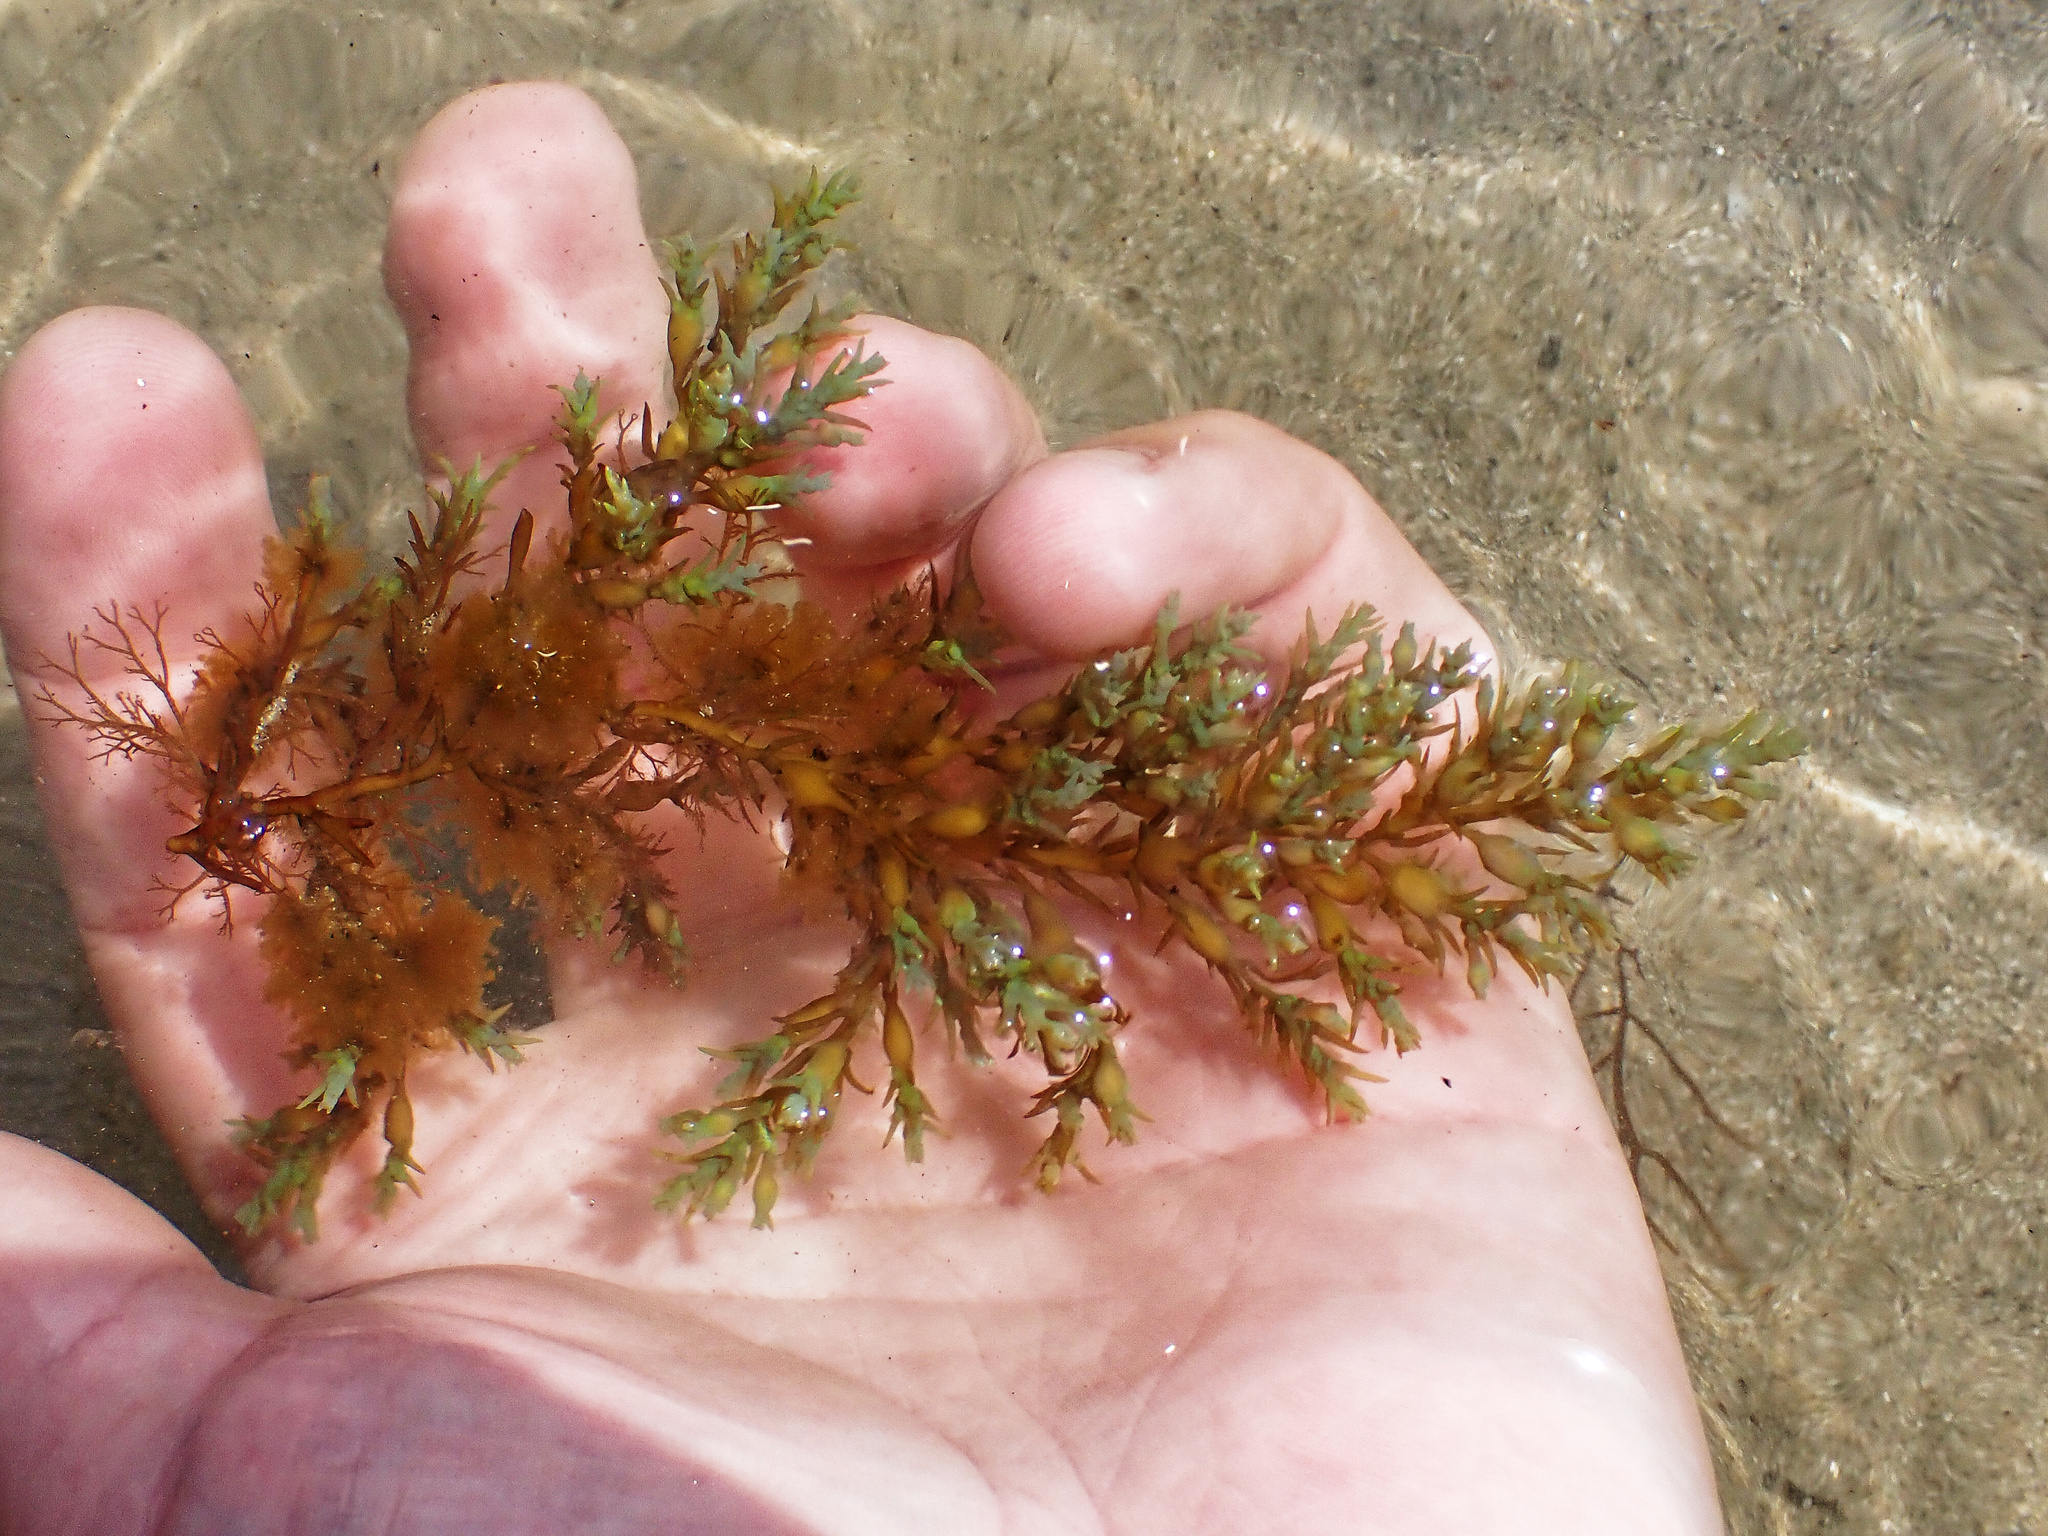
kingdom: Chromista
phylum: Ochrophyta
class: Phaeophyceae
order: Fucales
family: Sargassaceae
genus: Cystoseira
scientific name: Cystoseira Ericaria selaginoides
